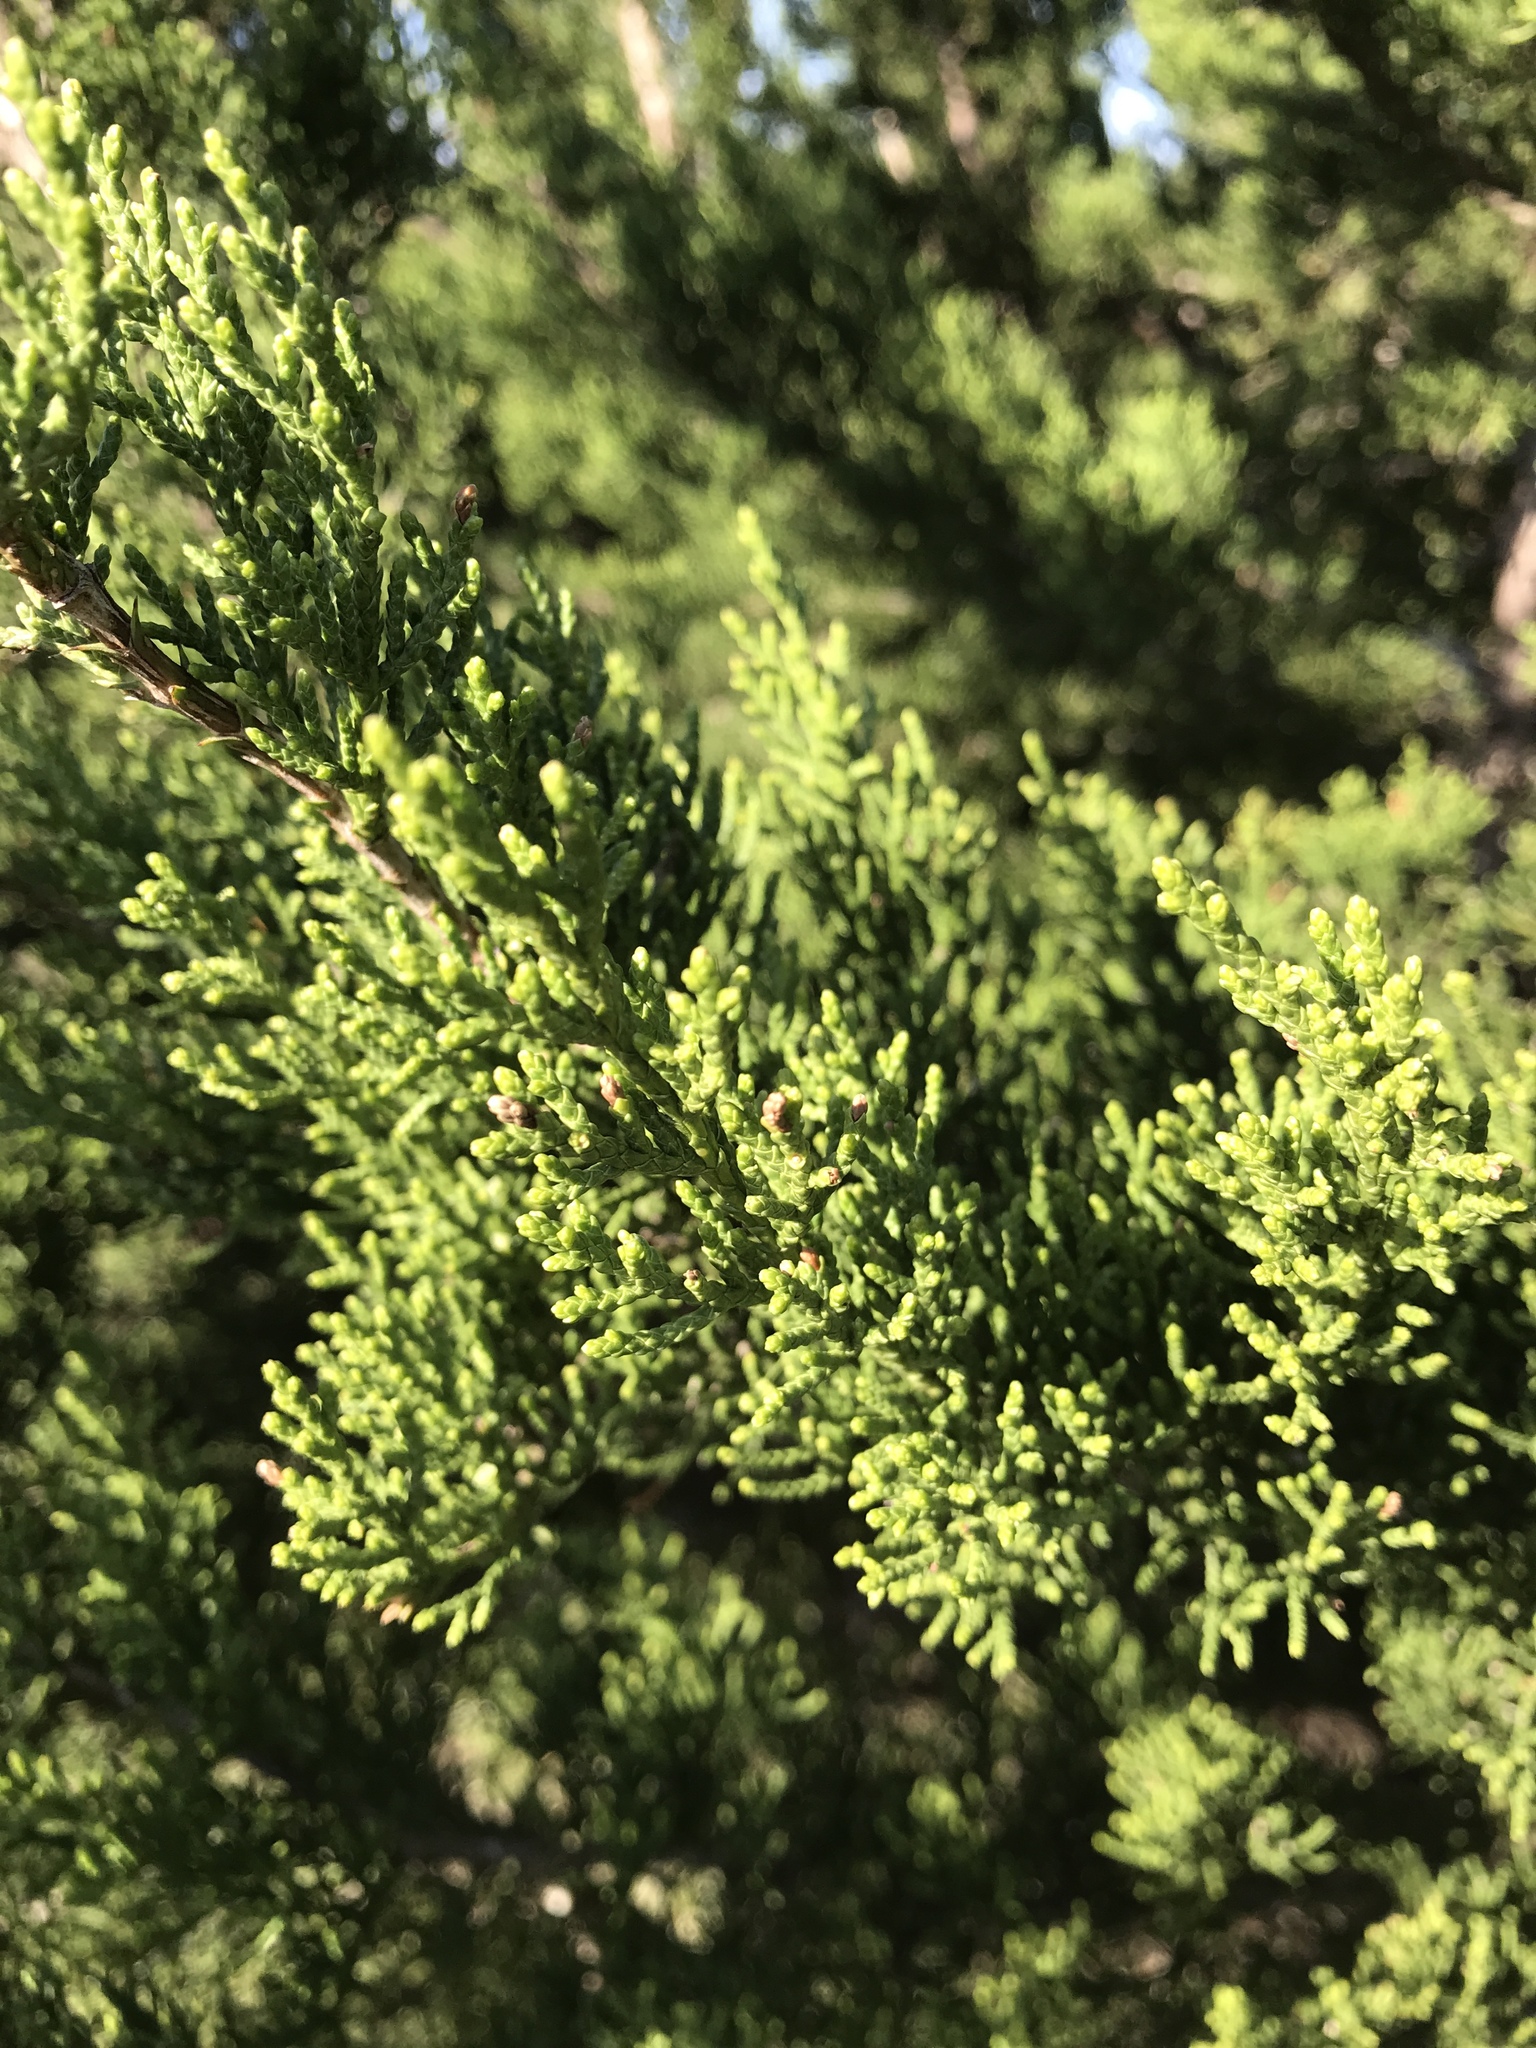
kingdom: Plantae
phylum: Tracheophyta
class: Pinopsida
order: Pinales
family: Cupressaceae
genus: Juniperus
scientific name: Juniperus ashei
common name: Mexican juniper
